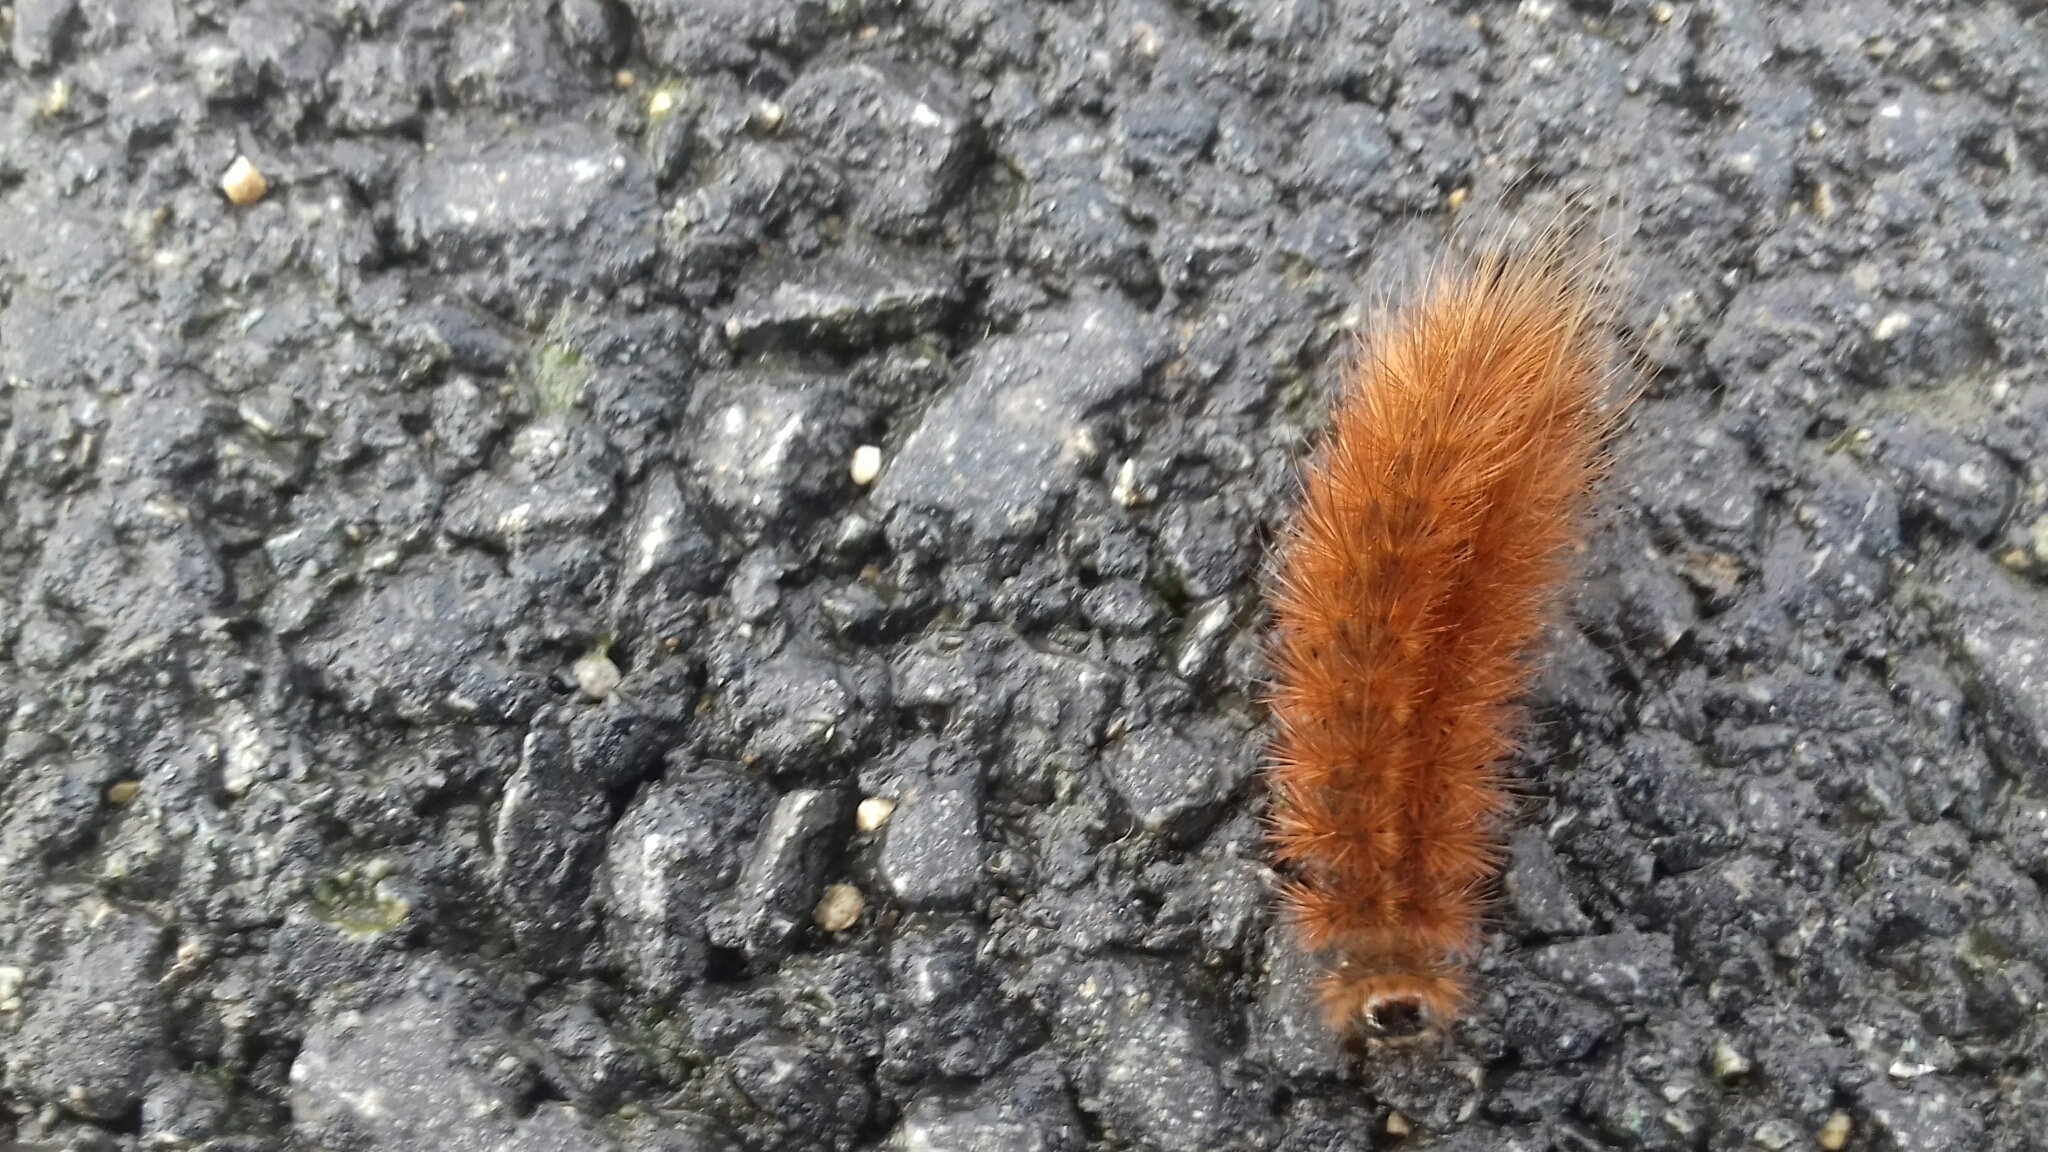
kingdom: Animalia
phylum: Arthropoda
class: Insecta
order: Lepidoptera
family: Erebidae
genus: Phragmatobia
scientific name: Phragmatobia fuliginosa
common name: Ruby tiger
